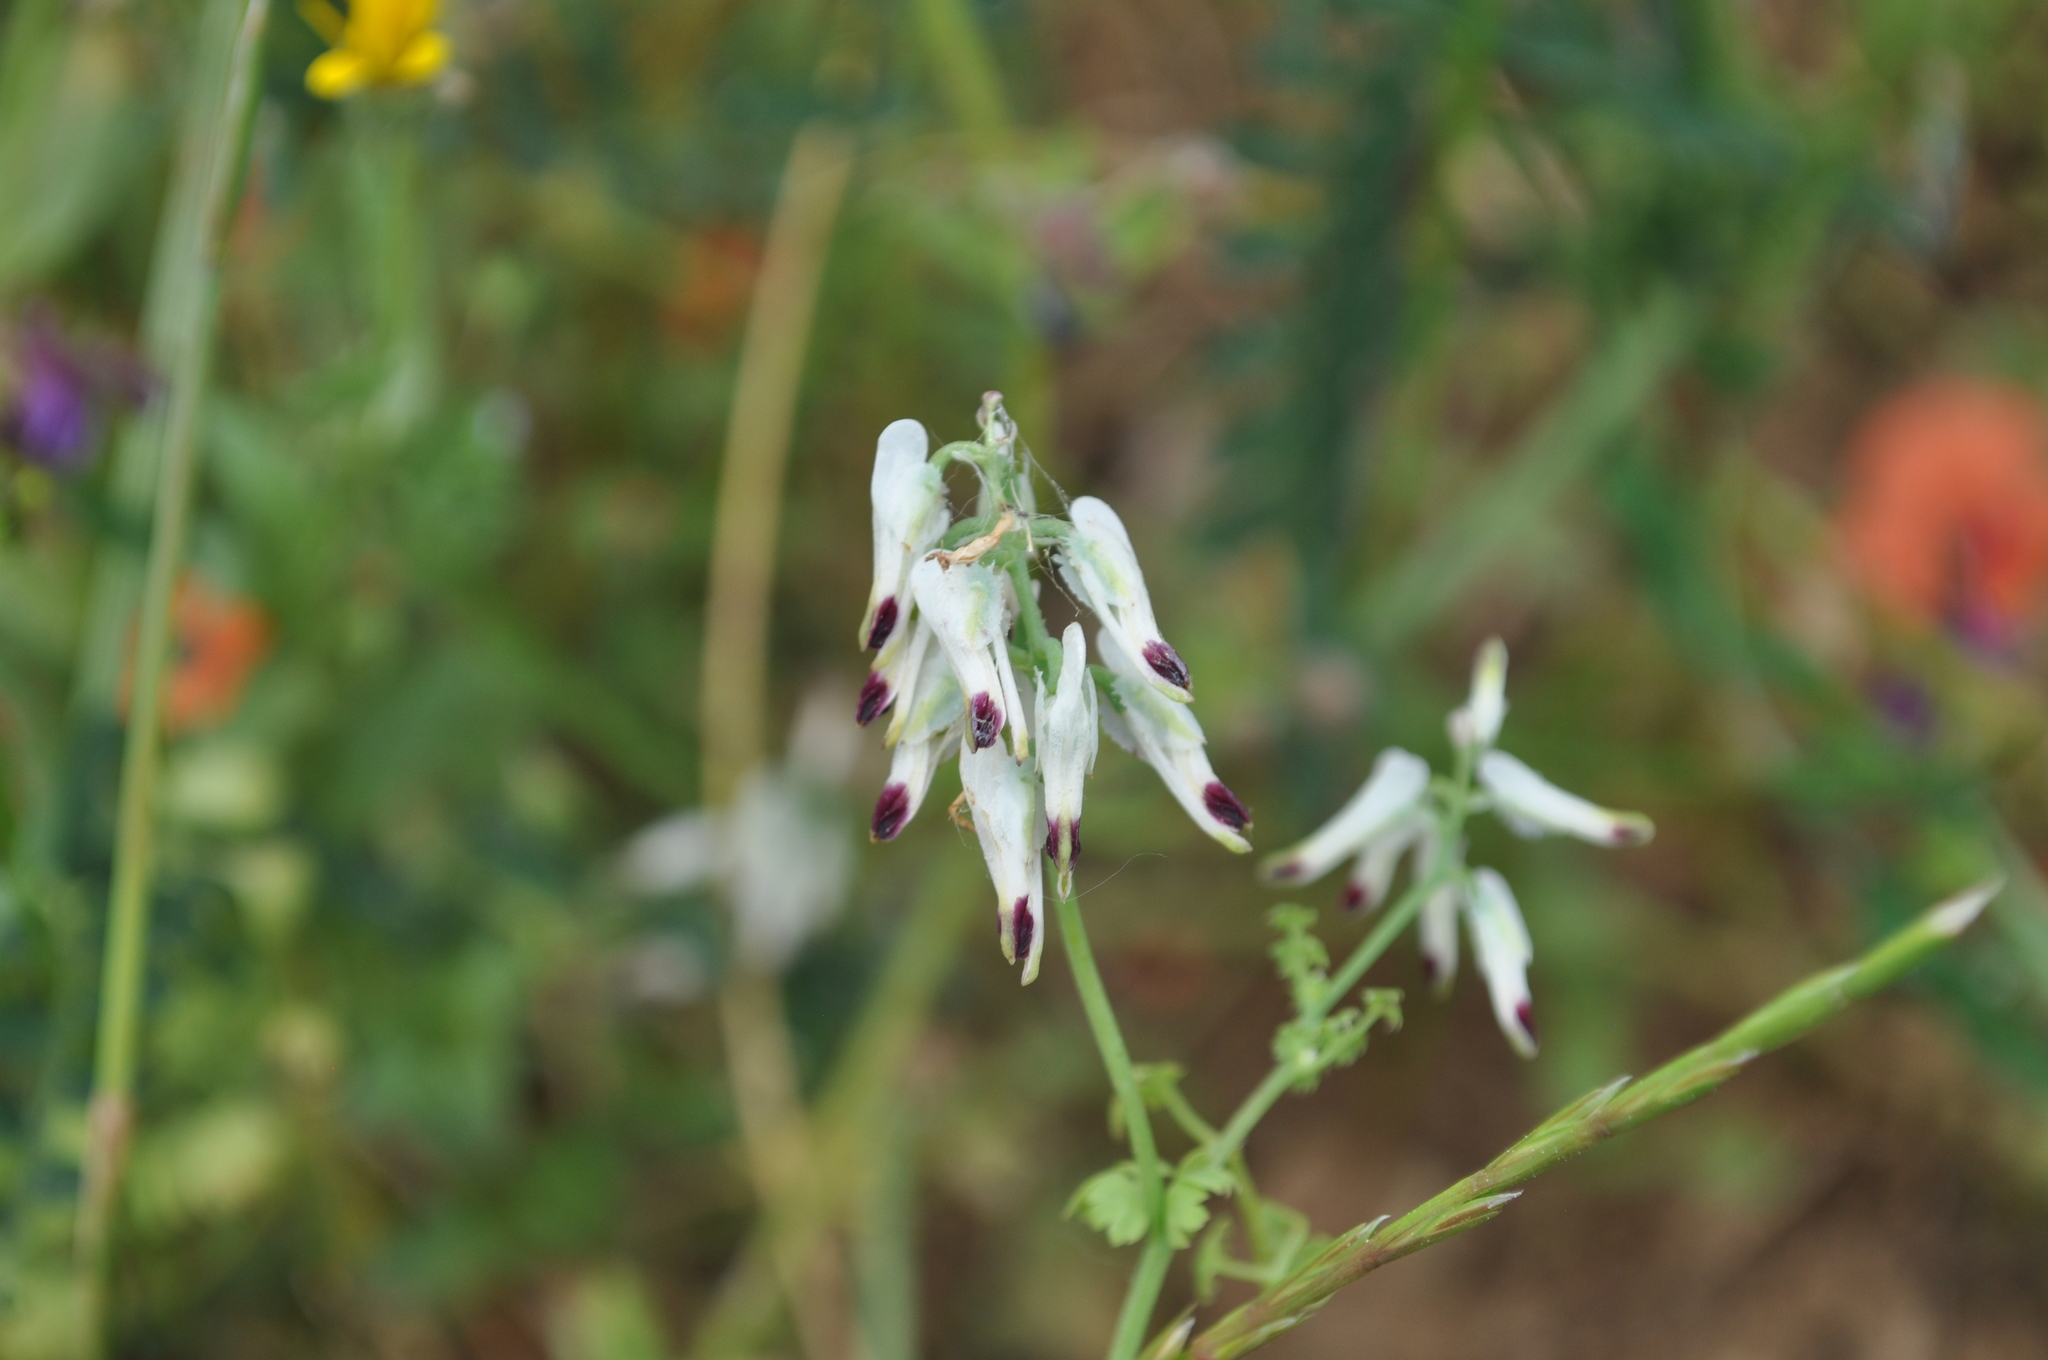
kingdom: Plantae
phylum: Tracheophyta
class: Magnoliopsida
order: Ranunculales
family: Papaveraceae
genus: Fumaria
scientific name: Fumaria capreolata
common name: White ramping-fumitory
